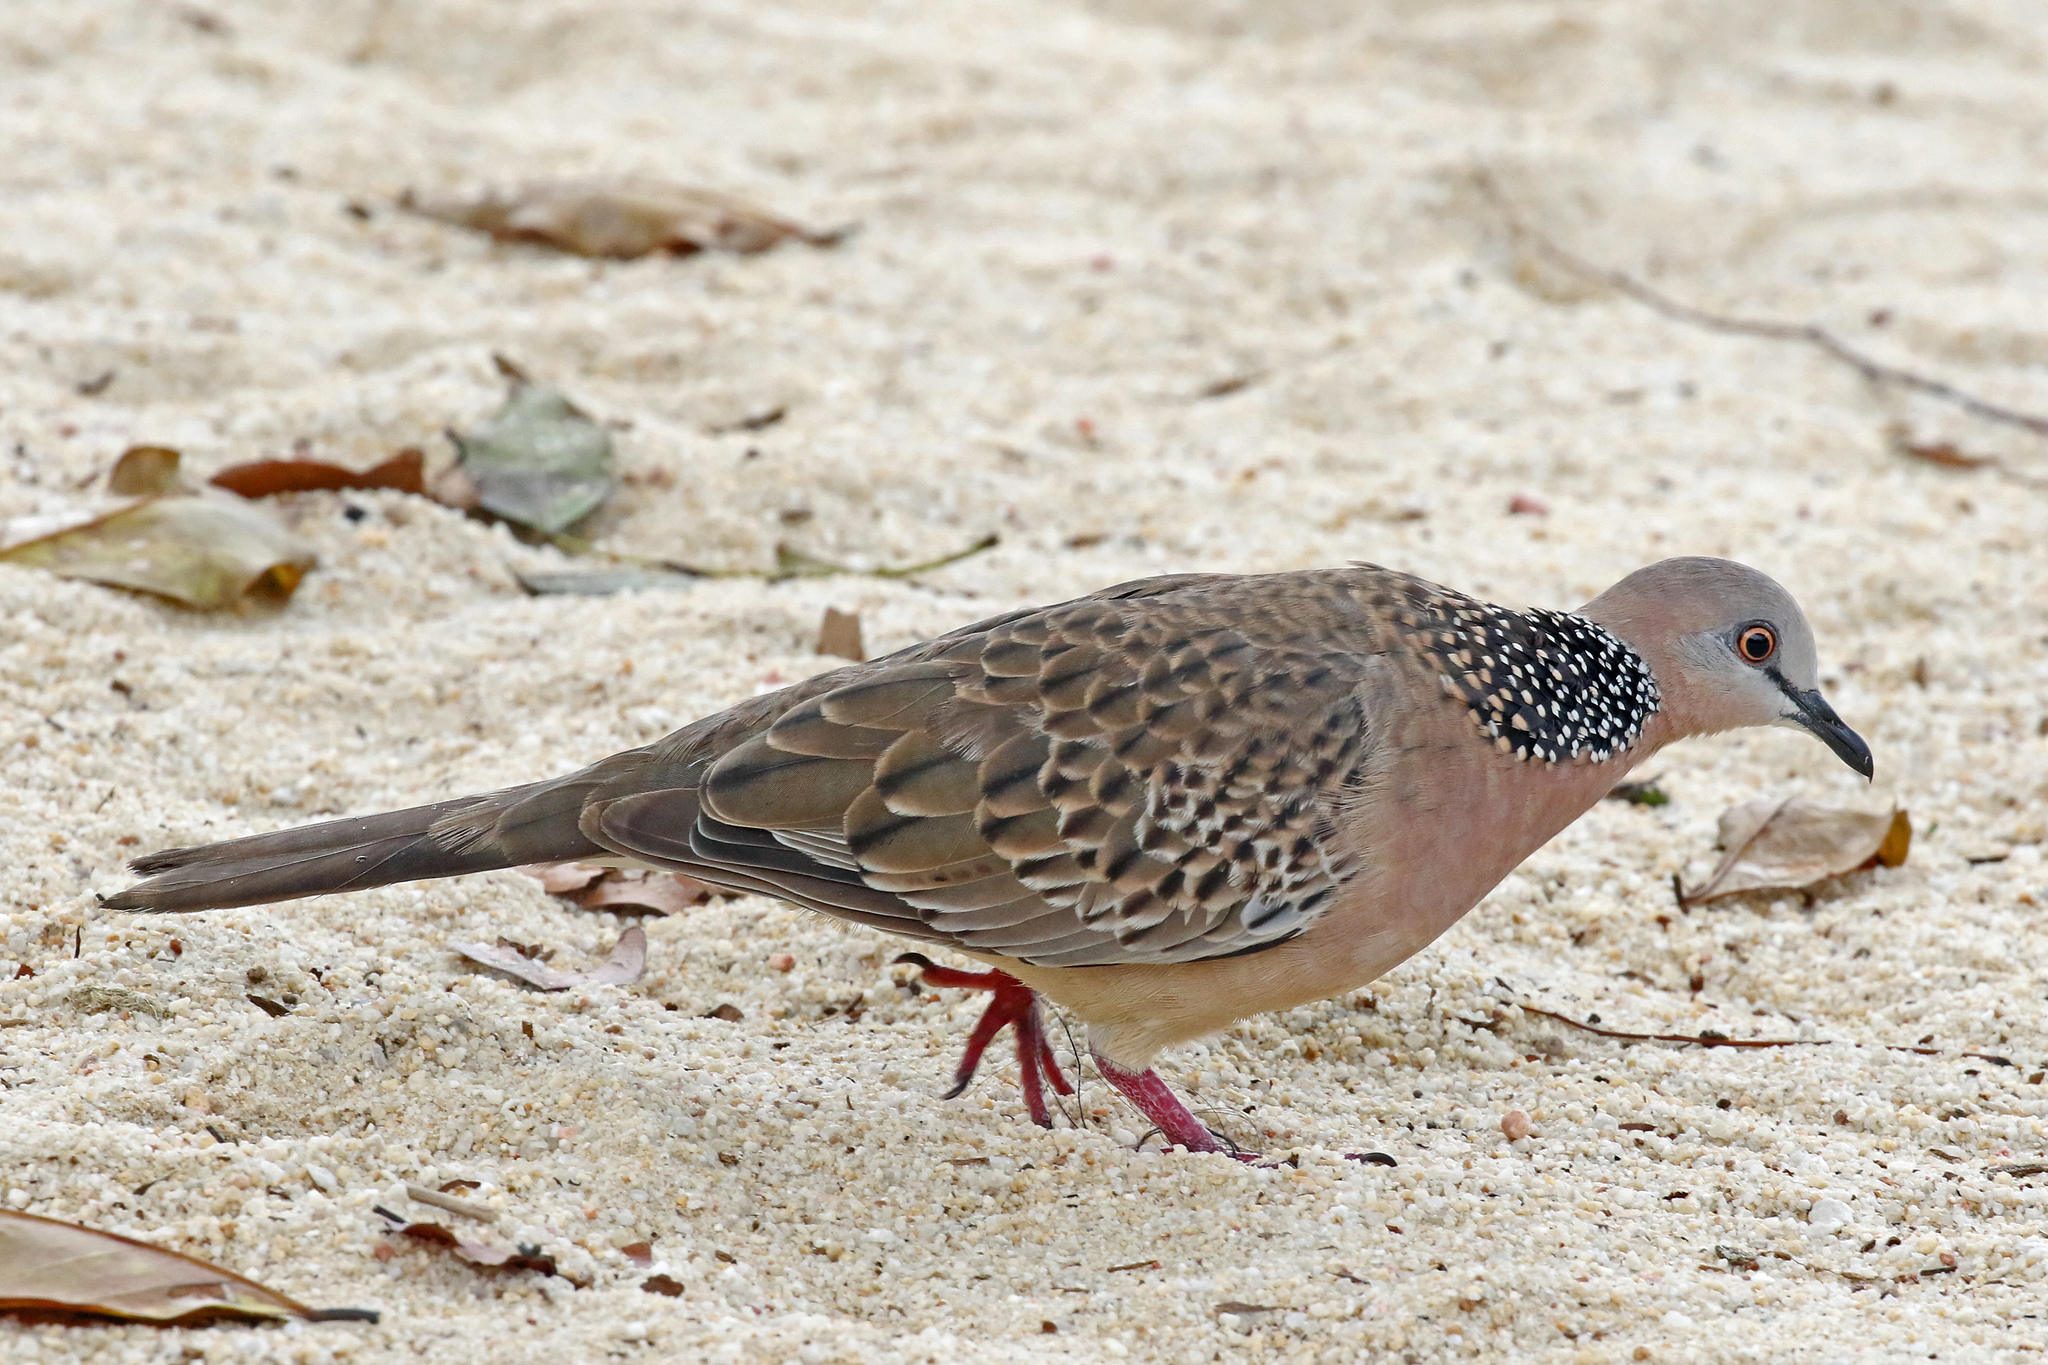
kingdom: Animalia
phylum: Chordata
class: Aves
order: Columbiformes
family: Columbidae
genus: Spilopelia
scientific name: Spilopelia chinensis
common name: Spotted dove
